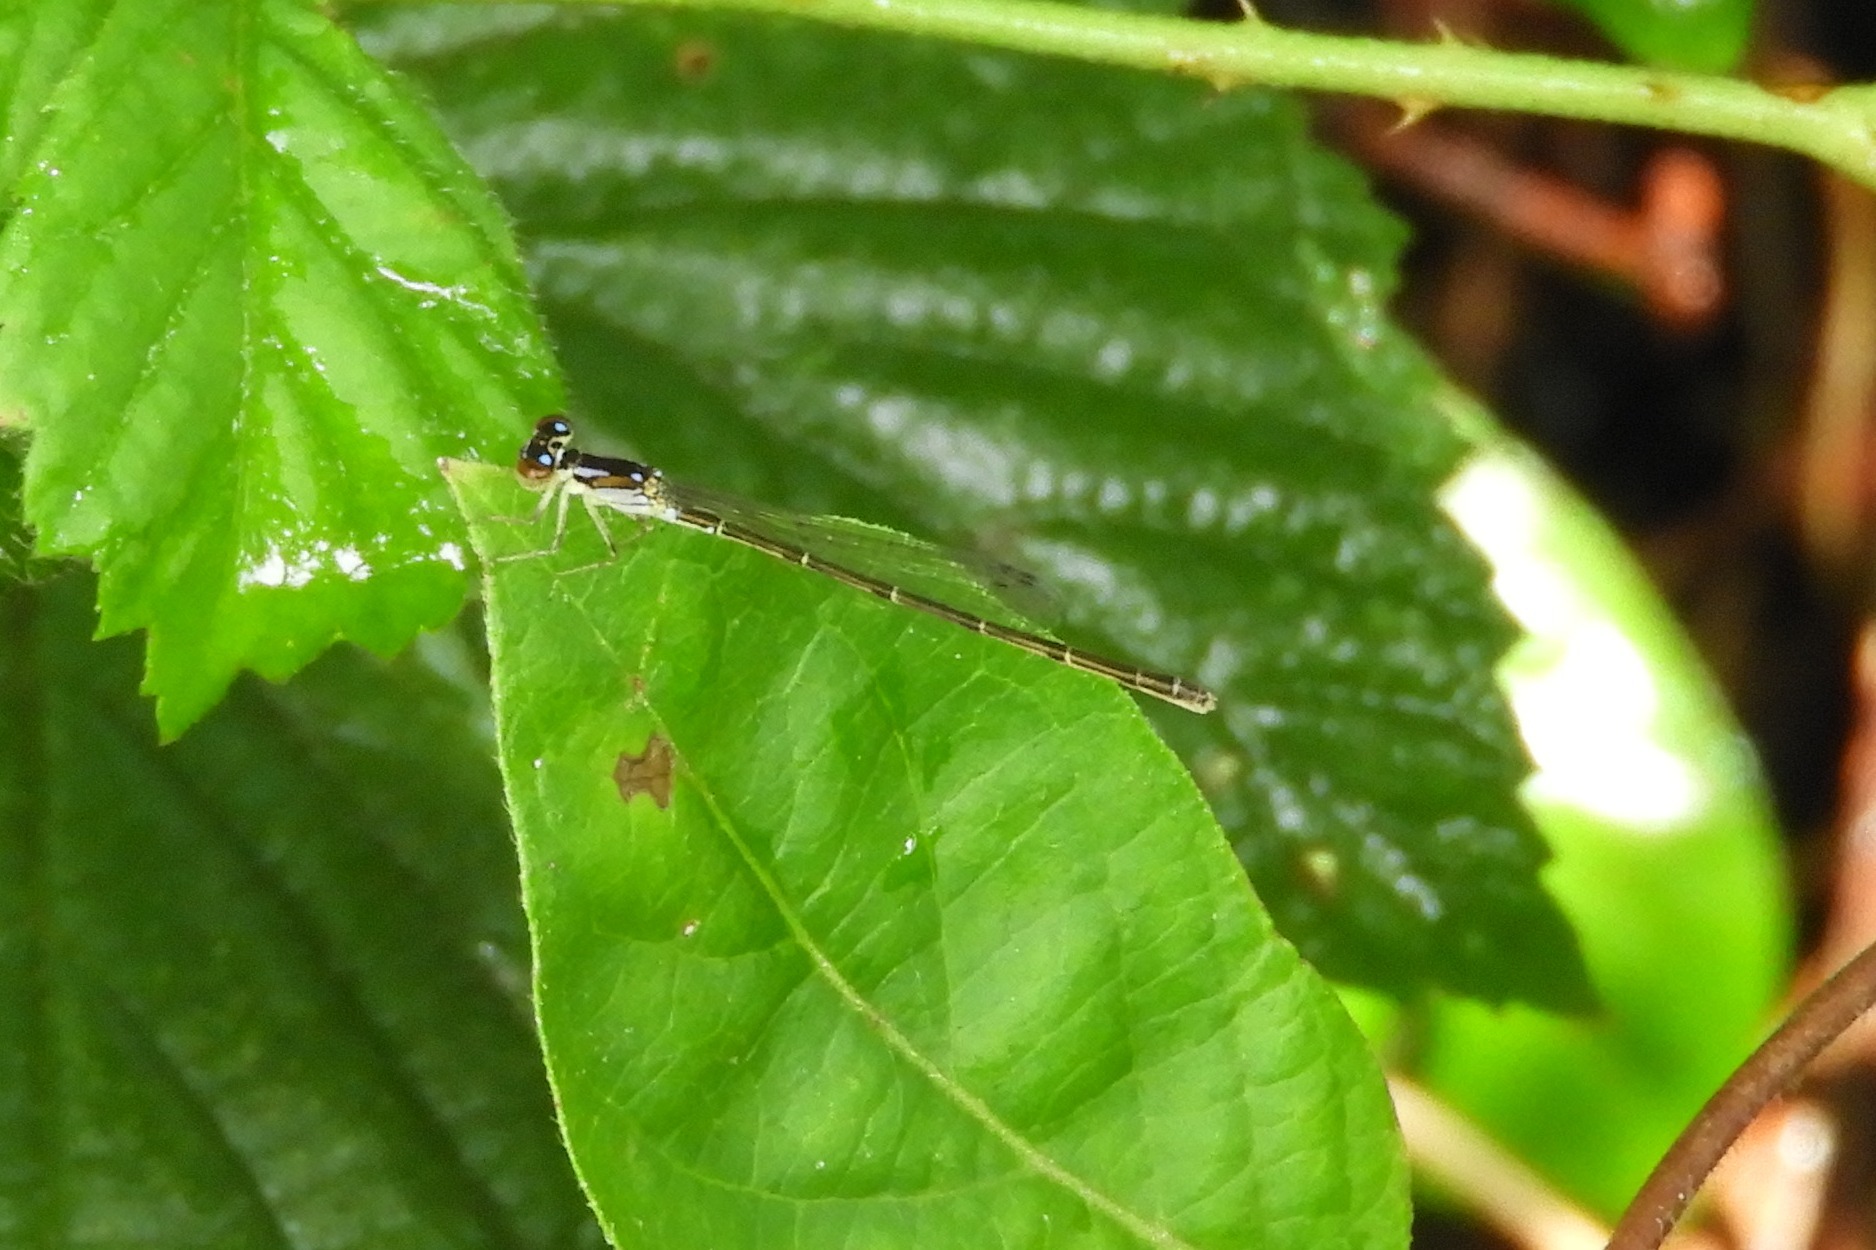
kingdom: Animalia
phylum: Arthropoda
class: Insecta
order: Odonata
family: Coenagrionidae
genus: Ischnura
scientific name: Ischnura posita
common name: Fragile forktail
